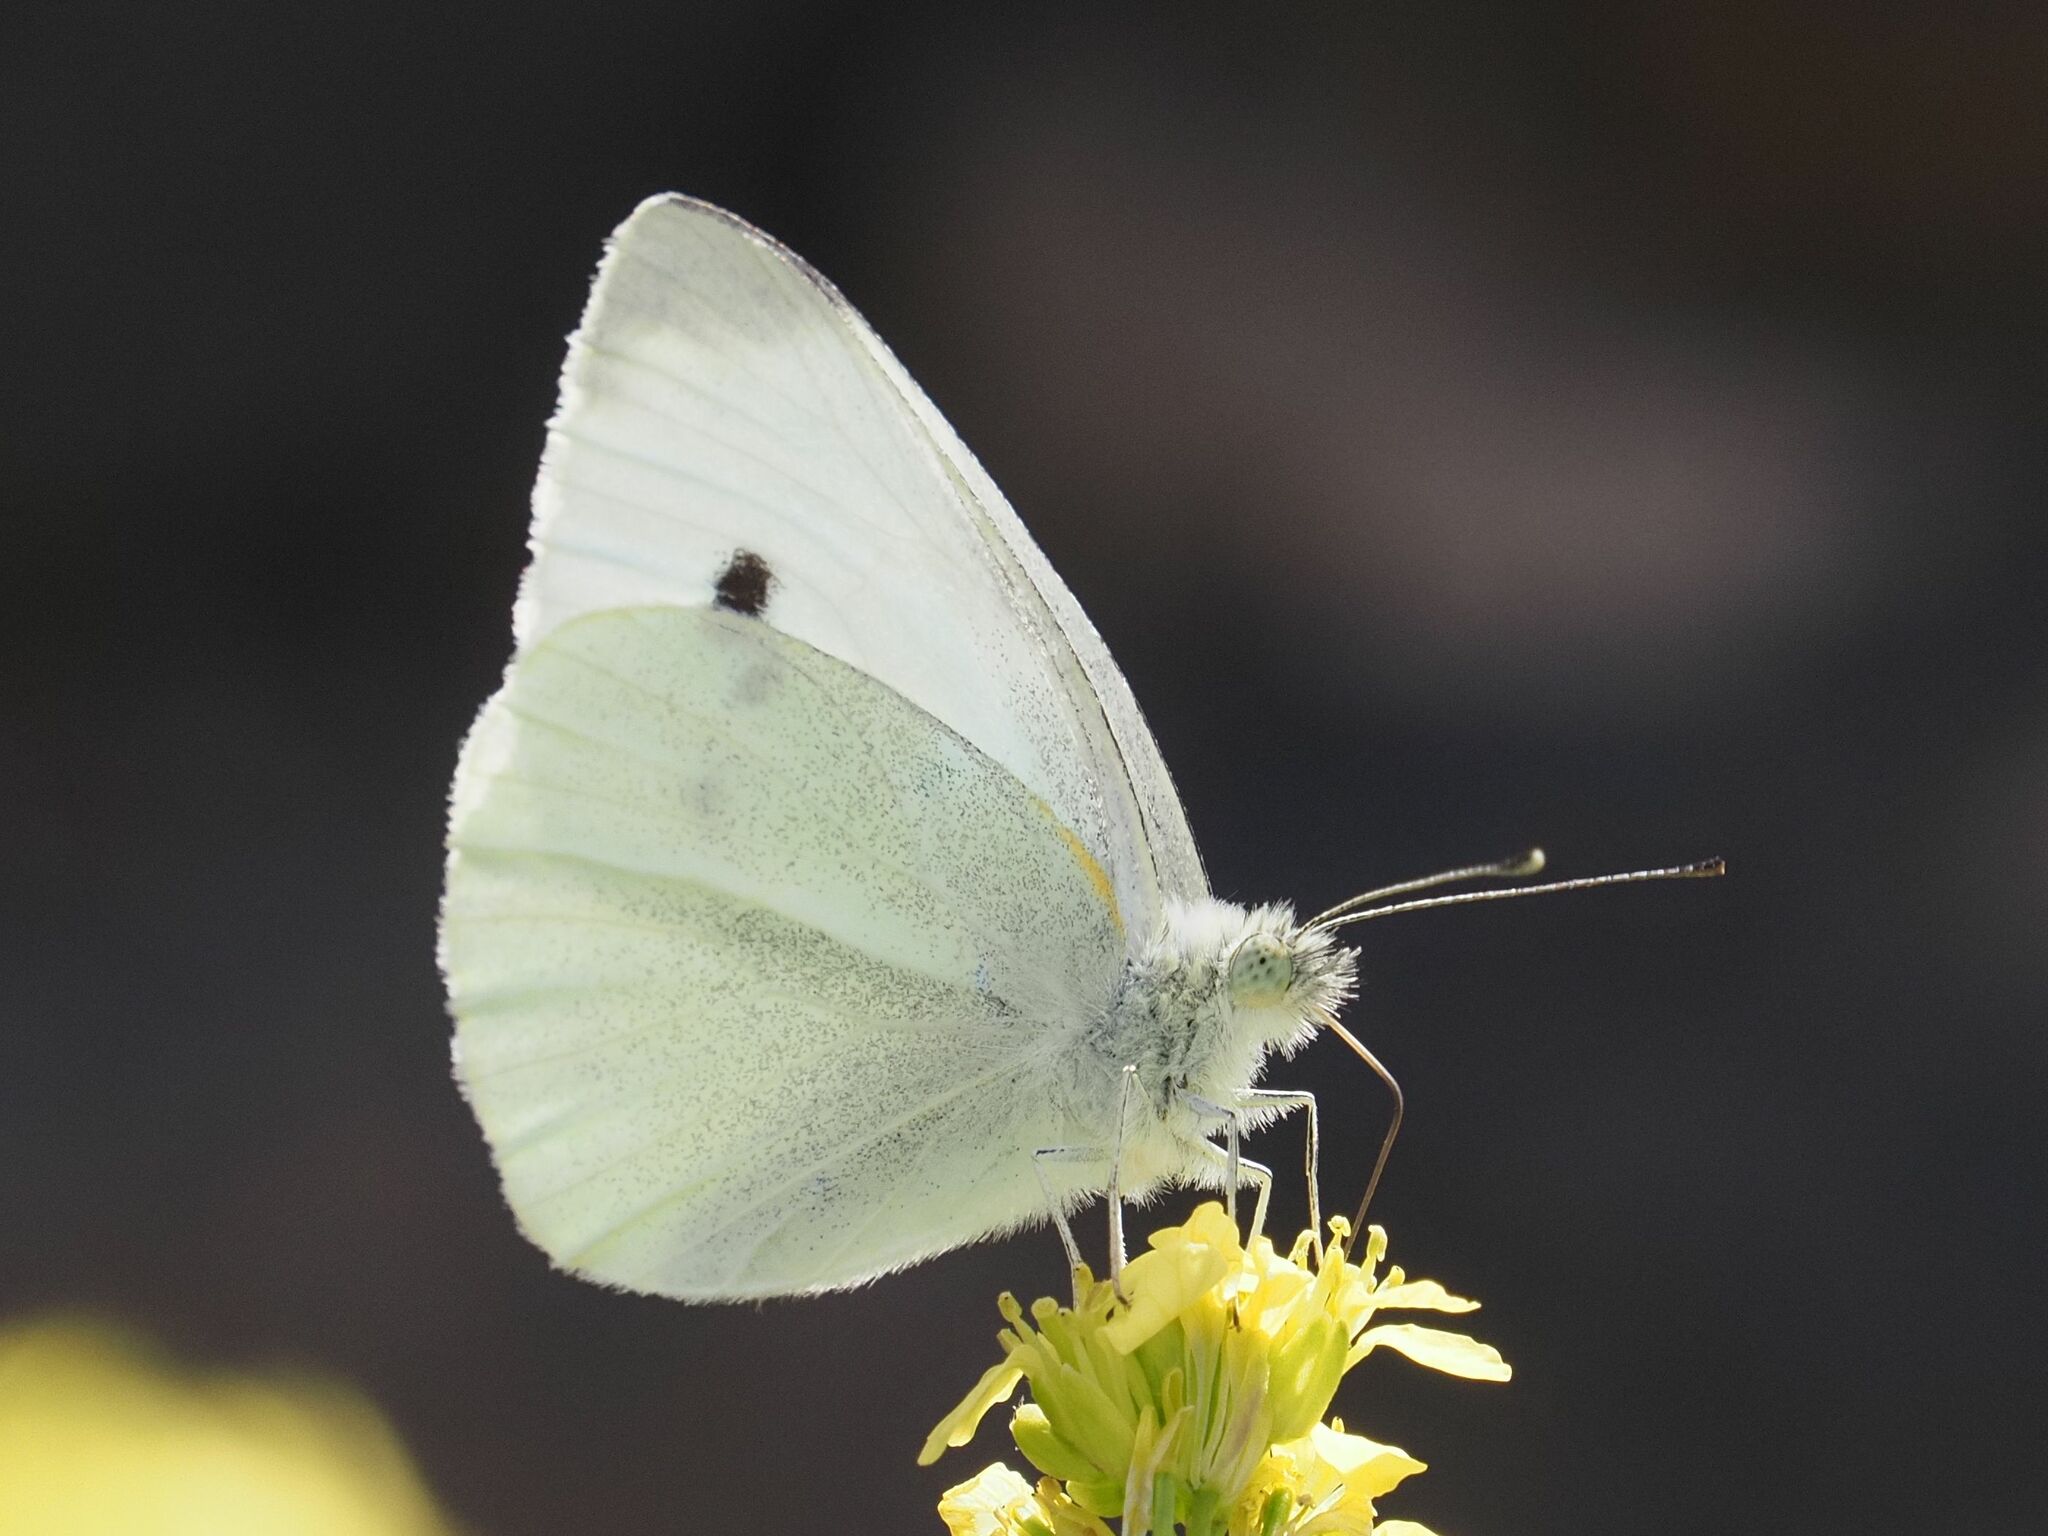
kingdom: Animalia
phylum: Arthropoda
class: Insecta
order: Lepidoptera
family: Pieridae
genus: Pieris
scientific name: Pieris rapae
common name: Small white
